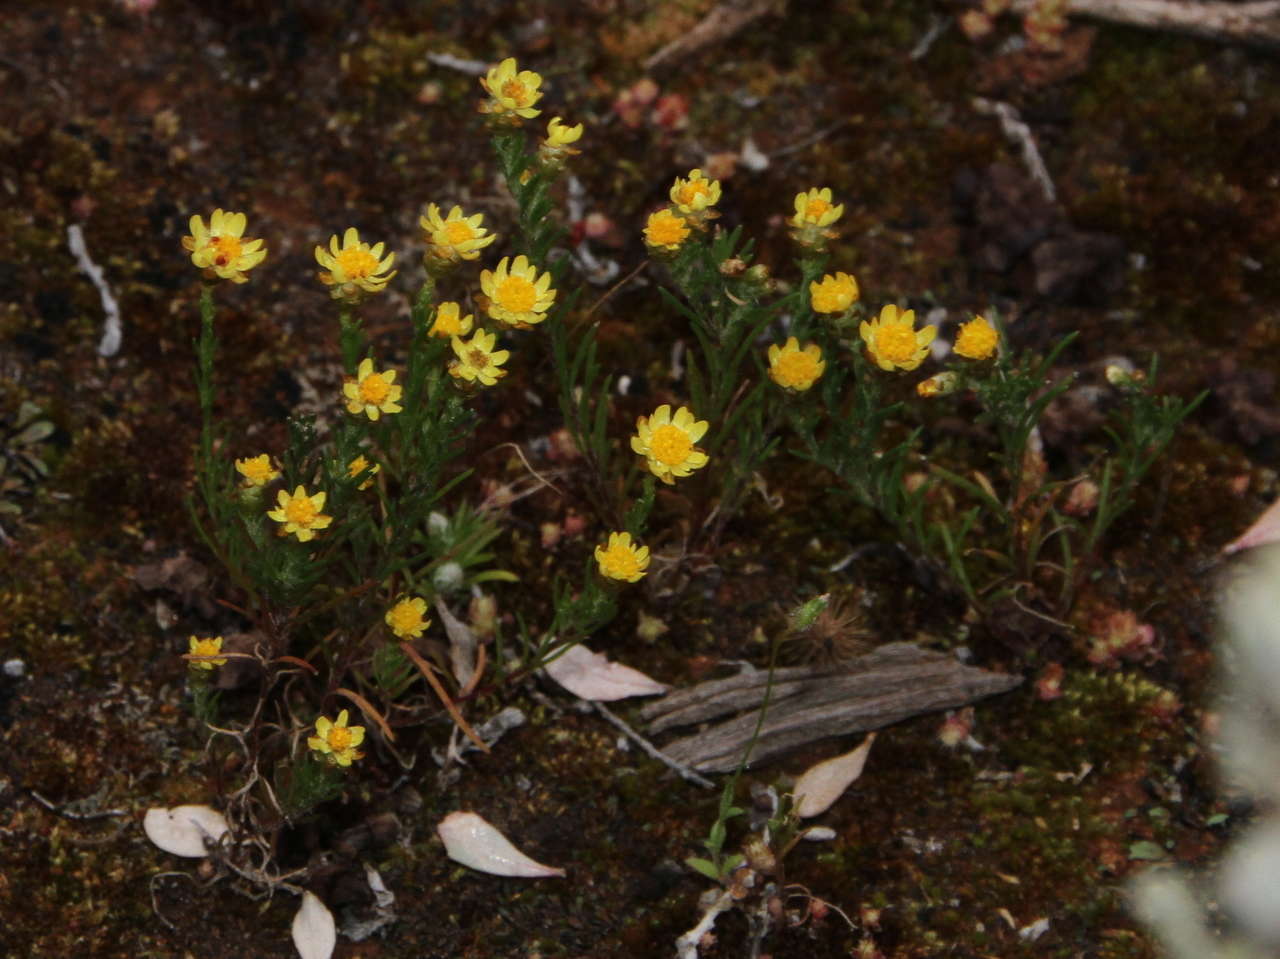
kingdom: Plantae
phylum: Tracheophyta
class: Magnoliopsida
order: Asterales
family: Asteraceae
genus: Hyalosperma
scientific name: Hyalosperma semisterile
